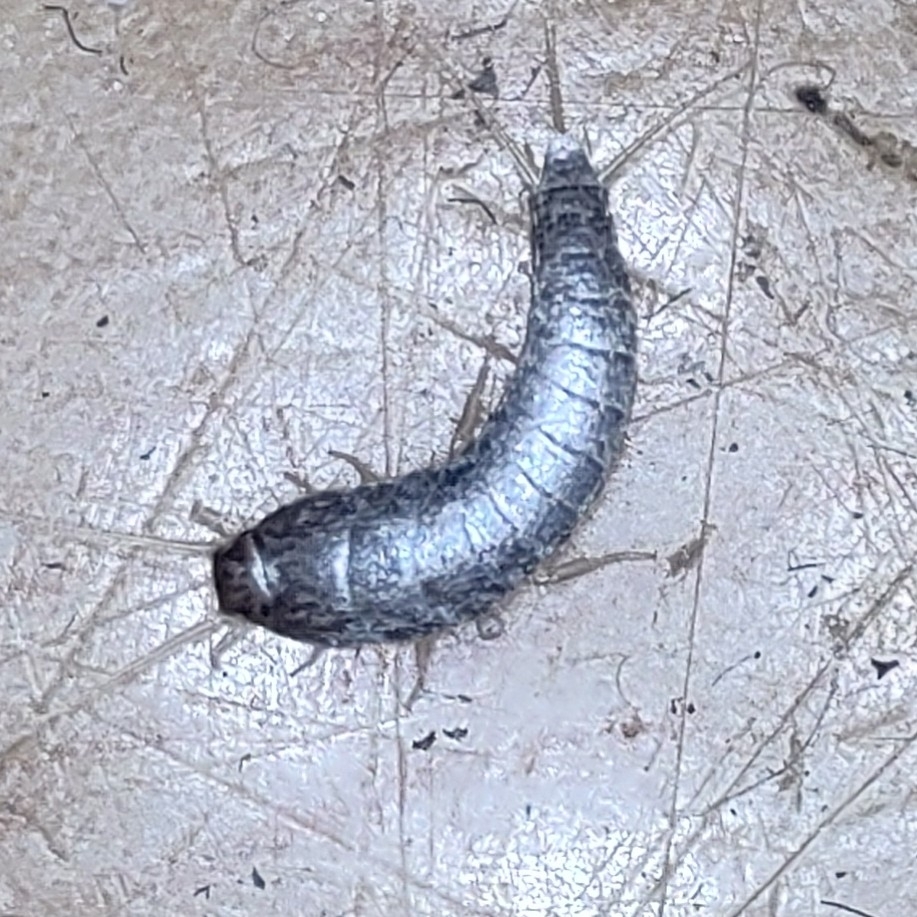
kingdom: Animalia
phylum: Arthropoda
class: Insecta
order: Zygentoma
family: Lepismatidae
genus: Lepisma
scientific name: Lepisma saccharinum
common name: Silverfish
